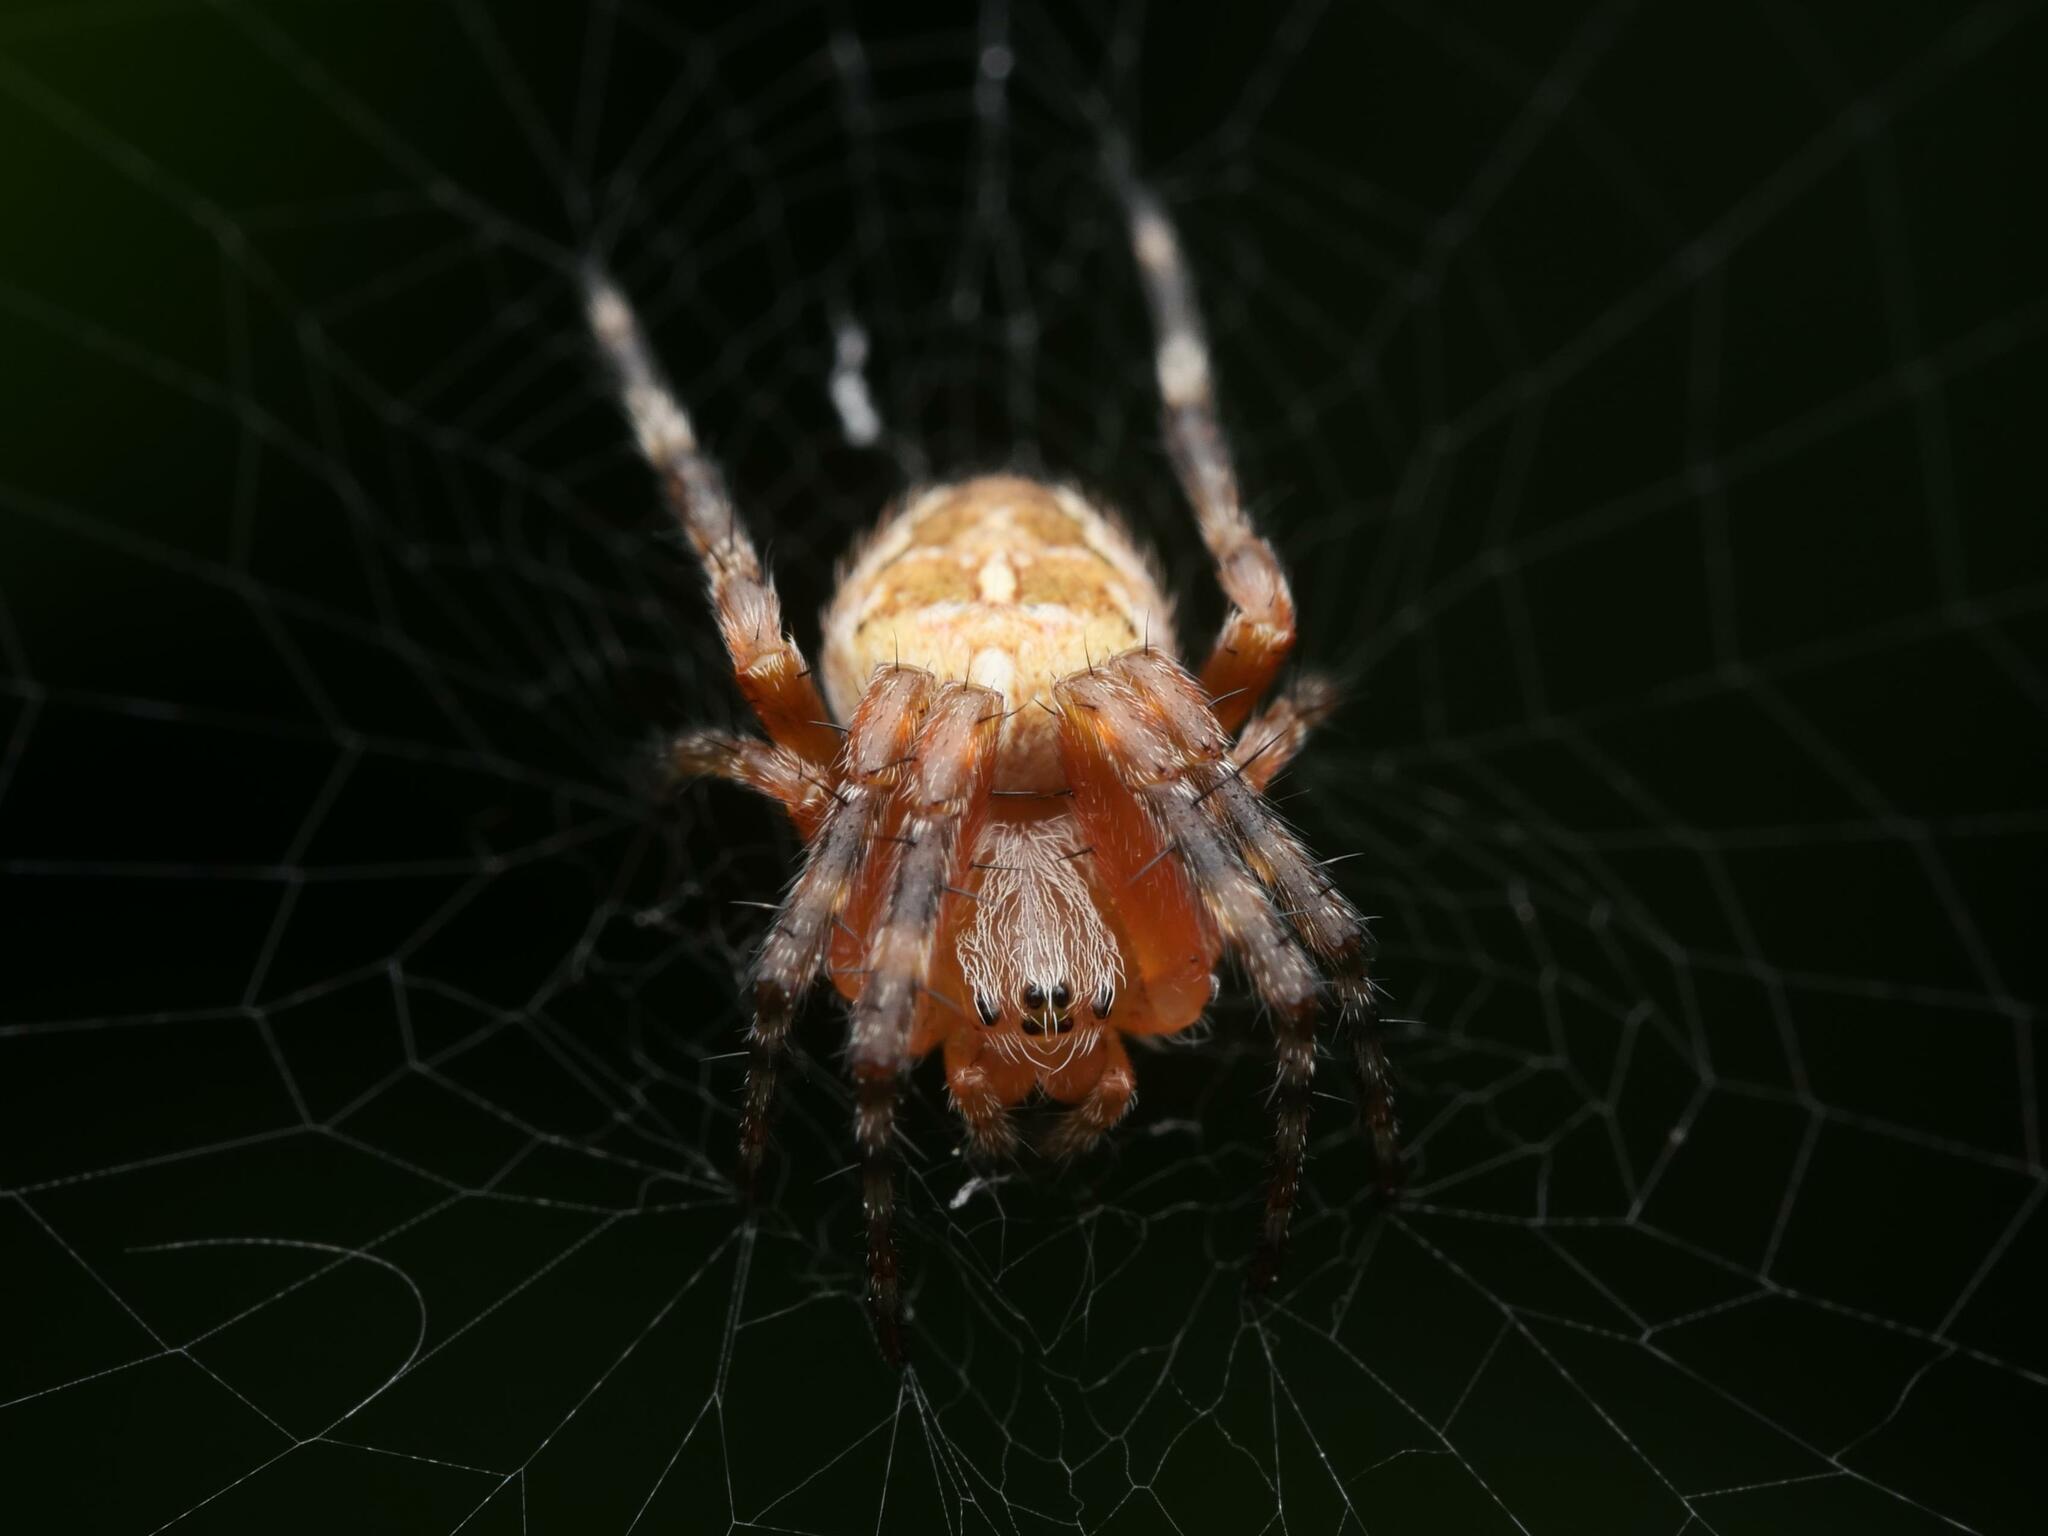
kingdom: Animalia
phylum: Arthropoda
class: Arachnida
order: Araneae
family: Araneidae
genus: Araneus
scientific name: Araneus diadematus
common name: Cross orbweaver
